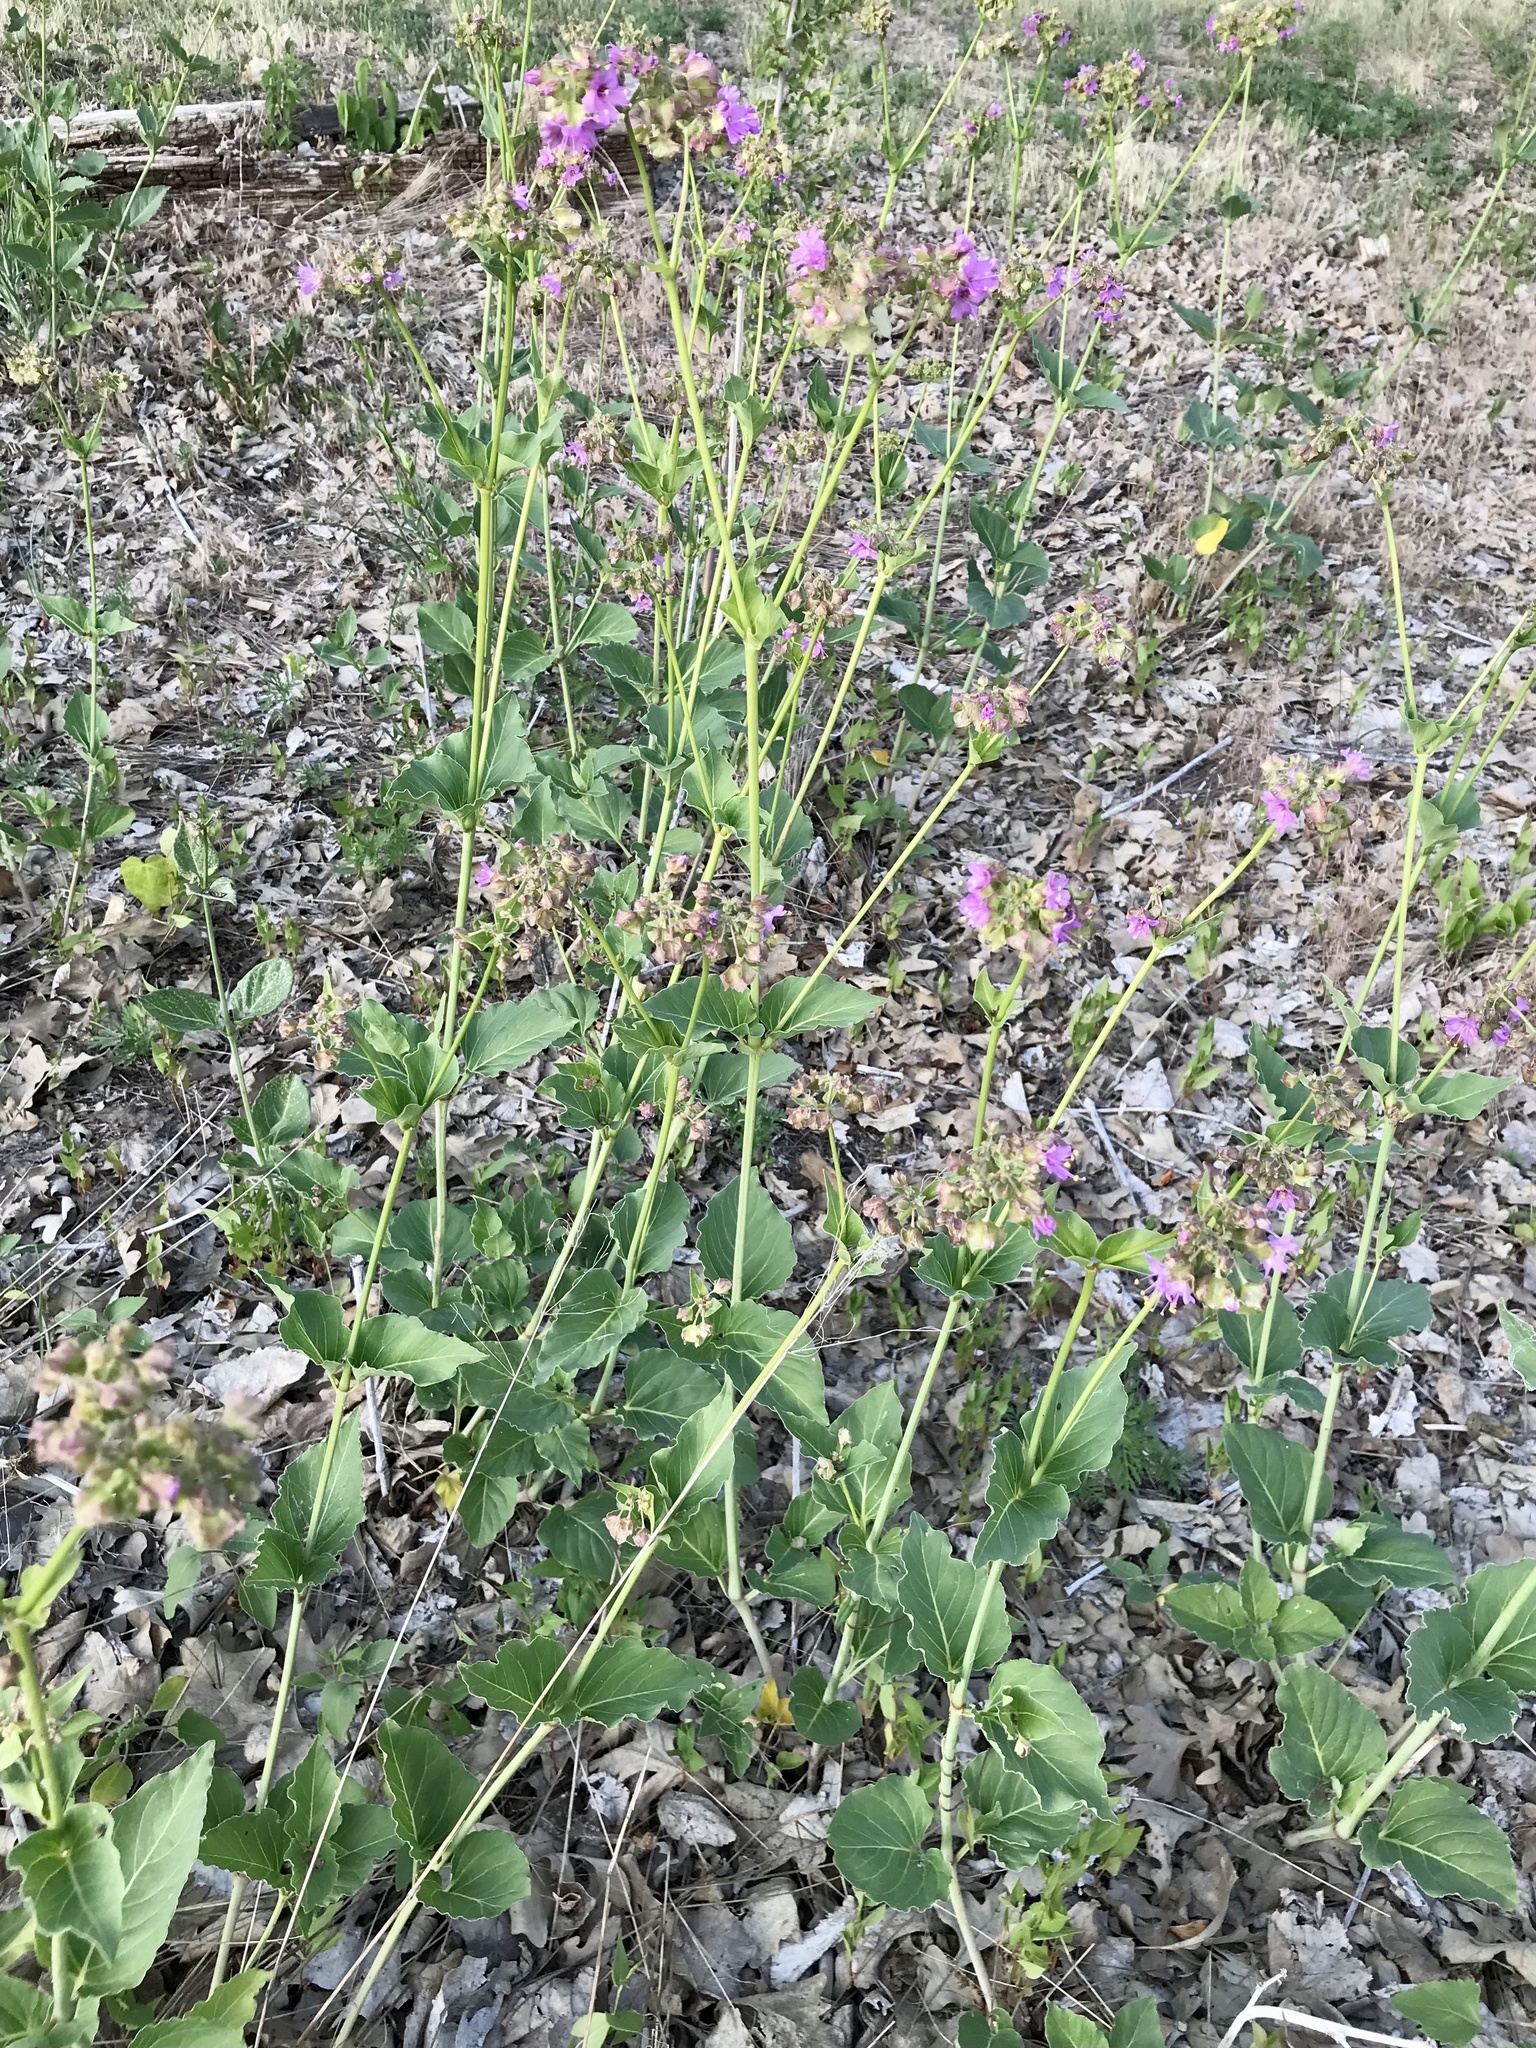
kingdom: Plantae
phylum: Tracheophyta
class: Magnoliopsida
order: Caryophyllales
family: Nyctaginaceae
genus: Mirabilis
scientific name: Mirabilis nyctaginea
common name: Umbrella wort
